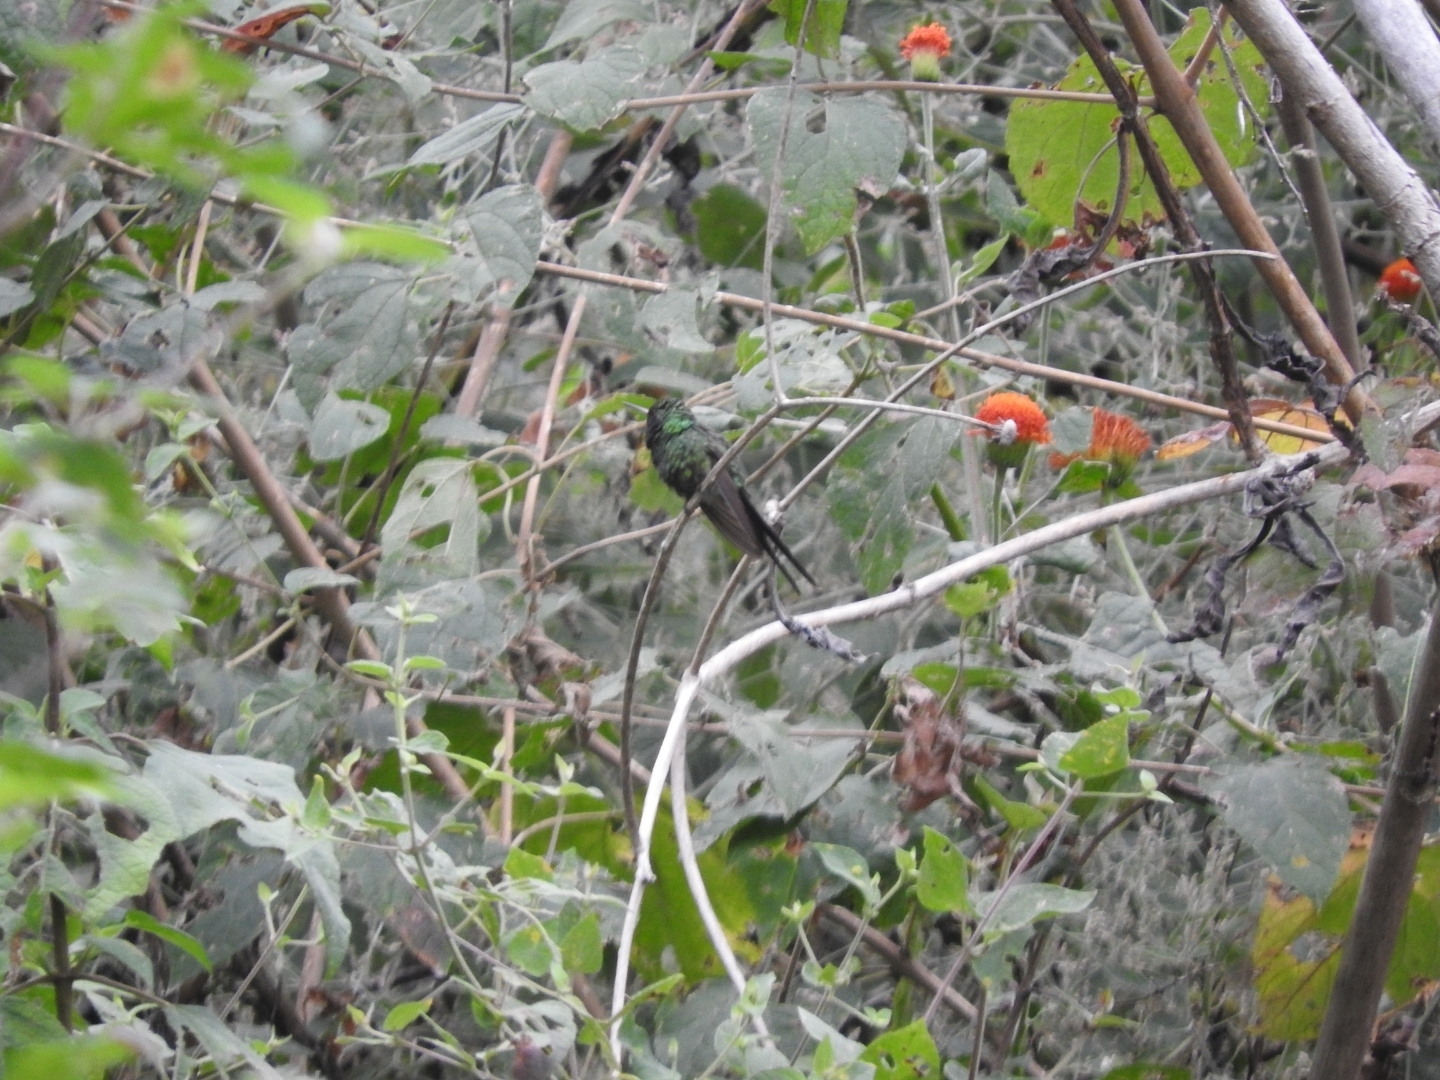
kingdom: Animalia
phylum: Chordata
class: Aves
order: Apodiformes
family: Trochilidae
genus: Cynanthus
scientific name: Cynanthus auriceps
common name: Golden-crowned emerald
